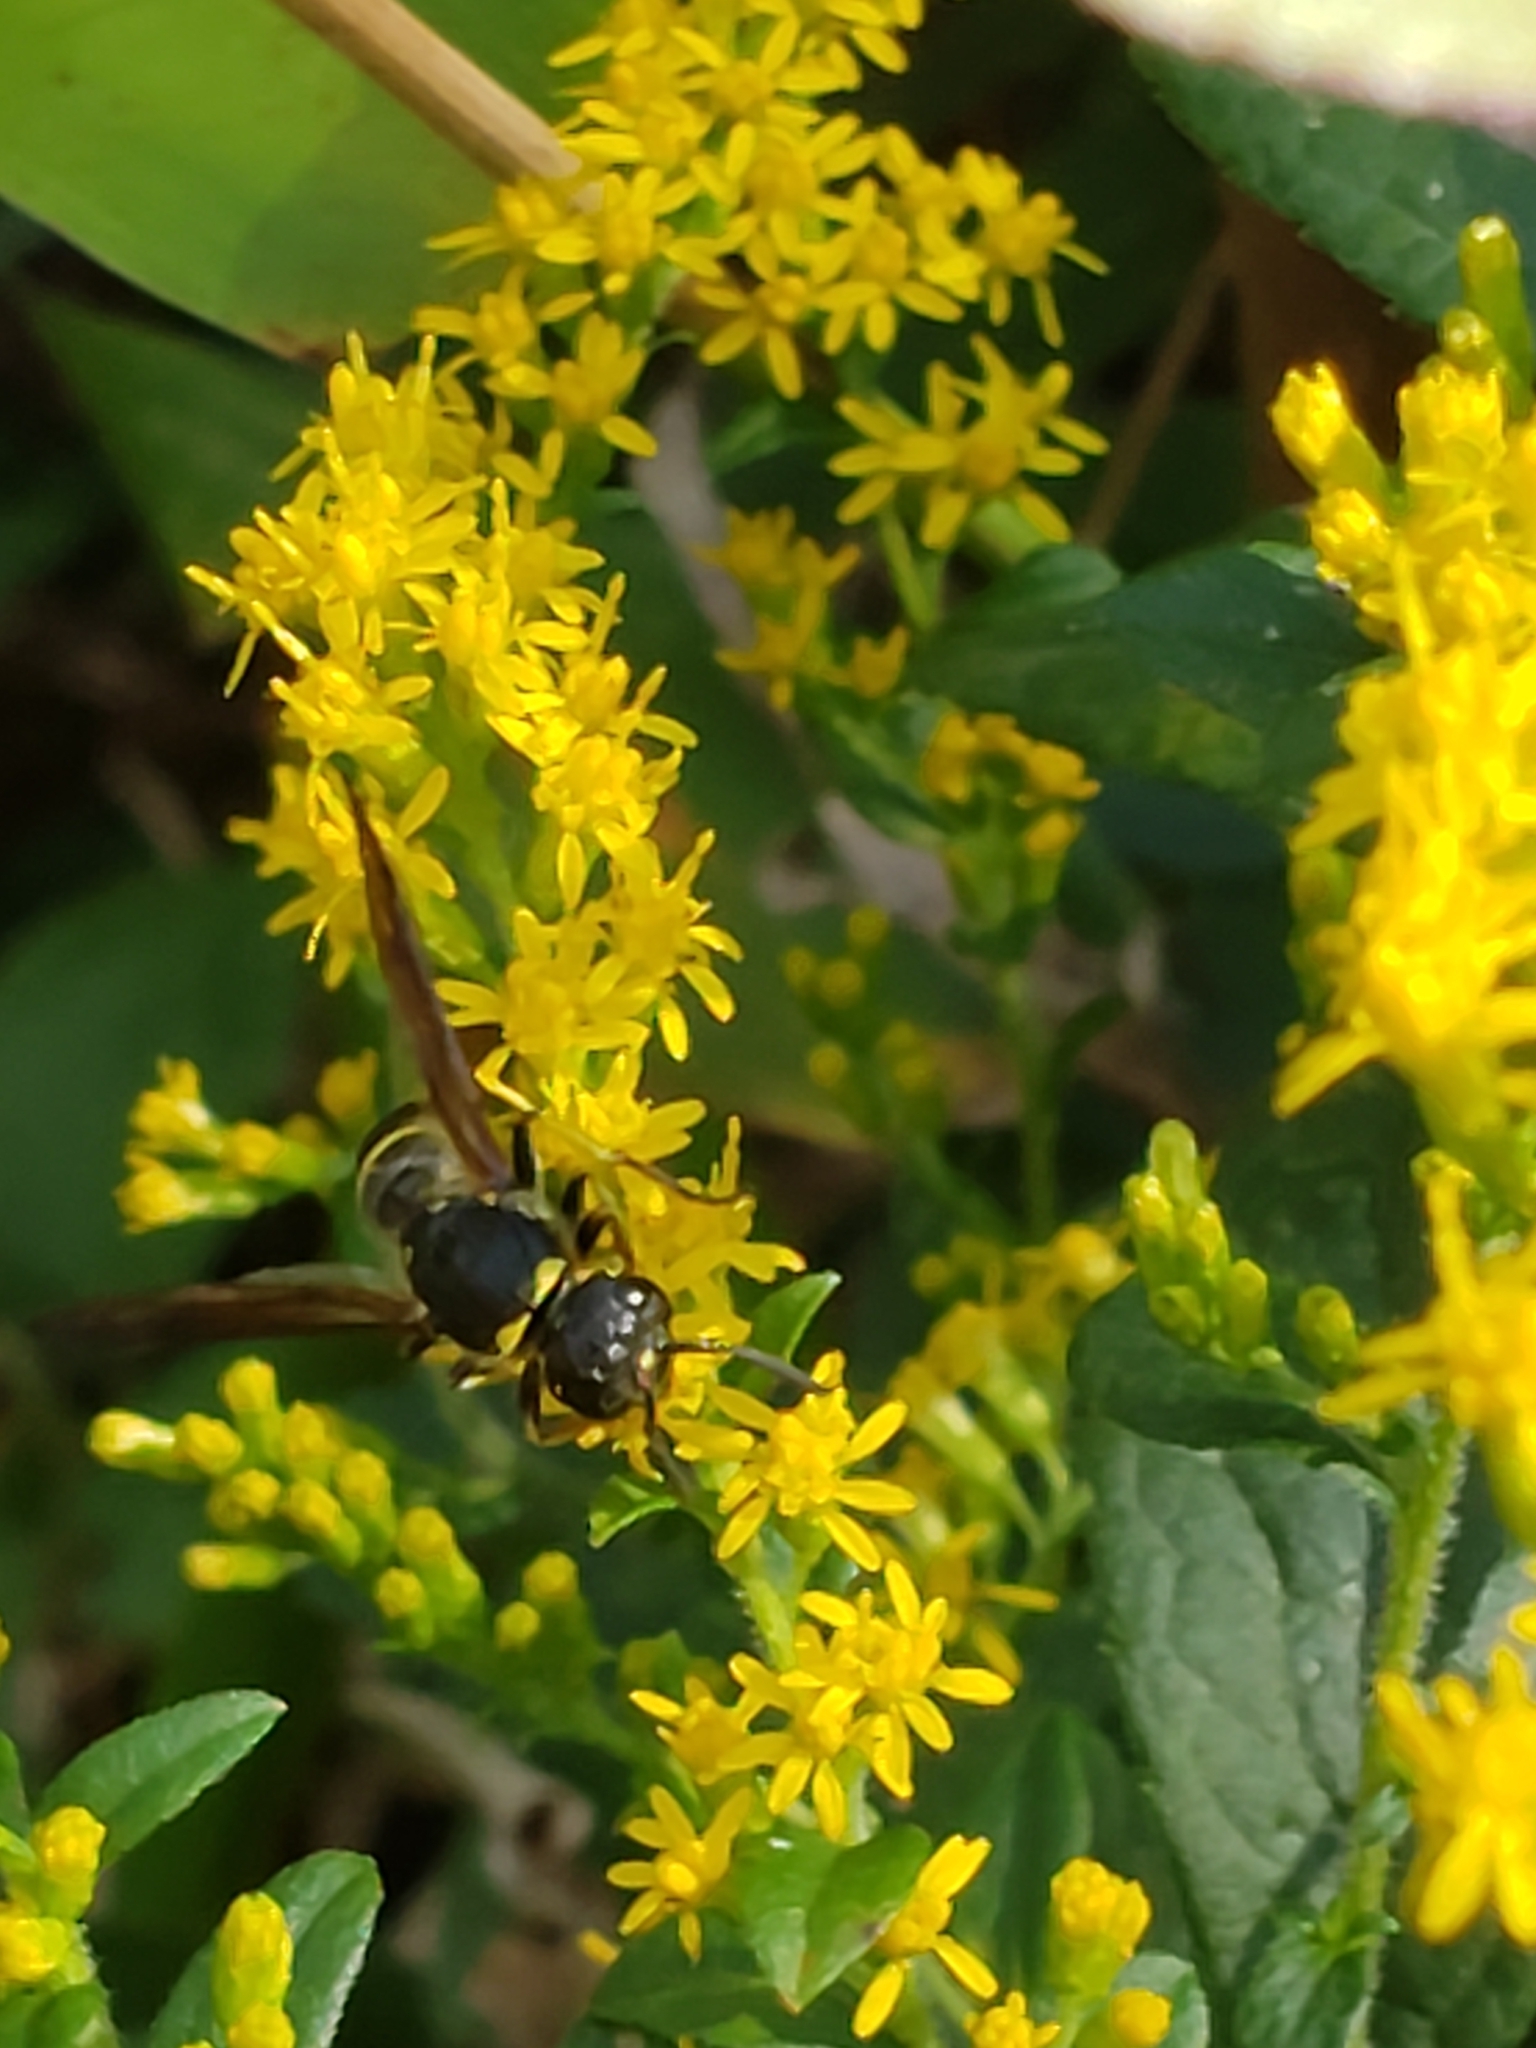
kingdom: Animalia
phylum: Arthropoda
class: Insecta
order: Hymenoptera
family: Vespidae
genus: Ancistrocerus
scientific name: Ancistrocerus
